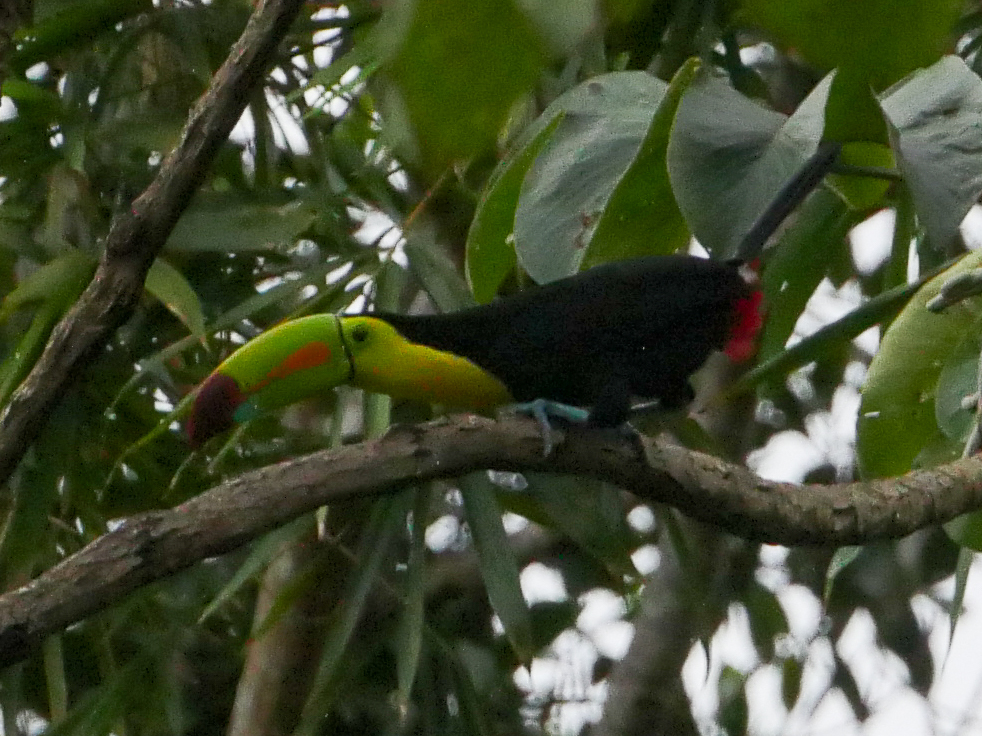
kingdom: Animalia
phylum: Chordata
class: Aves
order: Piciformes
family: Ramphastidae
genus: Ramphastos
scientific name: Ramphastos sulfuratus
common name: Keel-billed toucan
